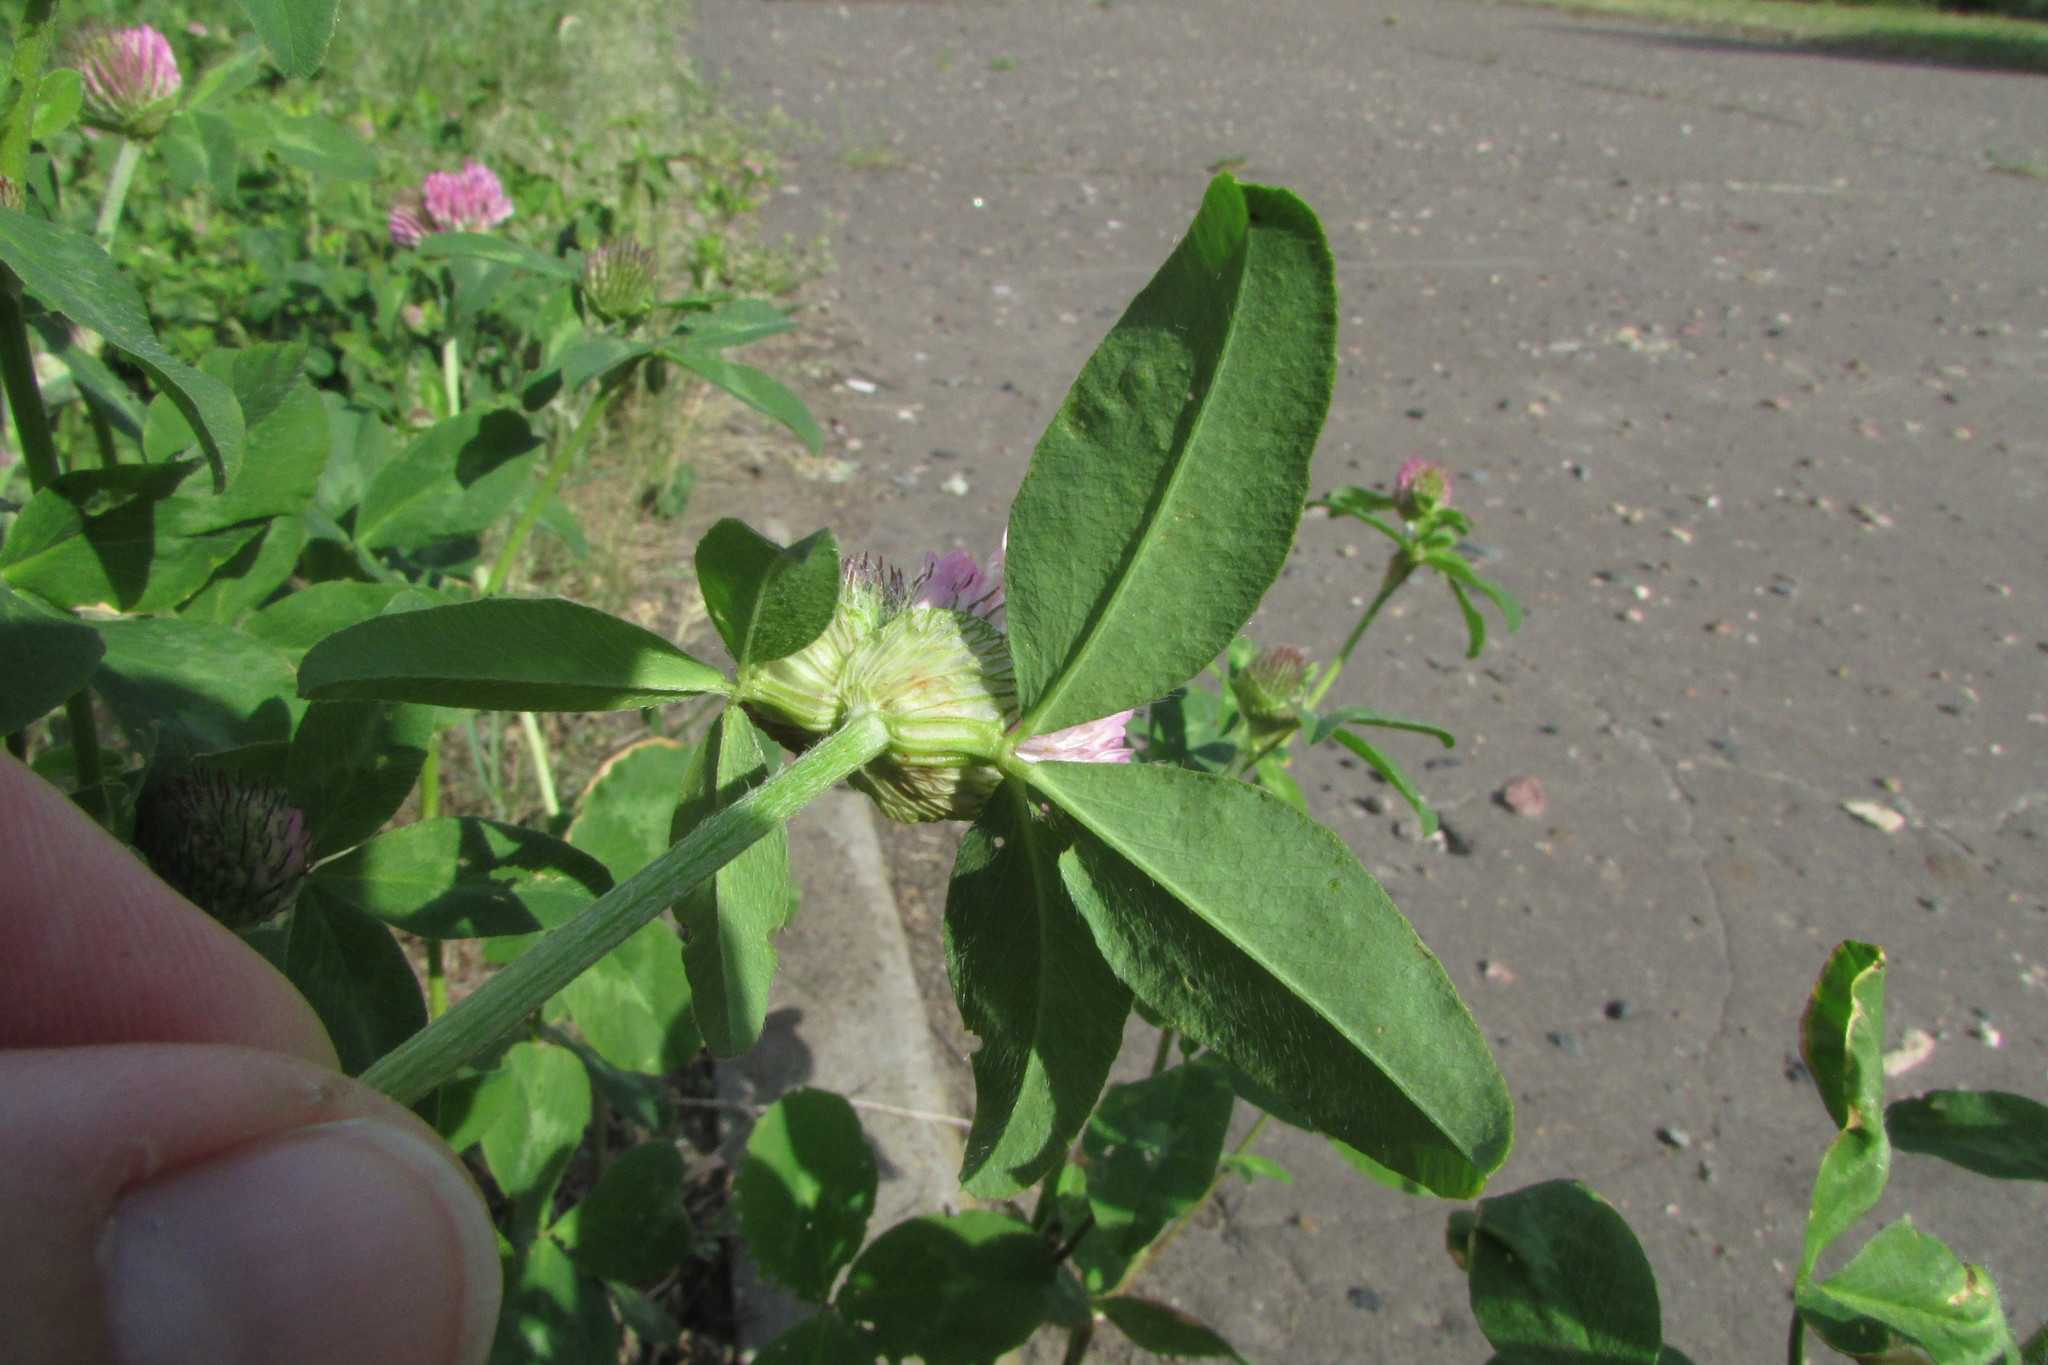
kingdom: Plantae
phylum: Tracheophyta
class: Magnoliopsida
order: Oxalidales
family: Oxalidaceae
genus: Oxalis
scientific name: Oxalis stricta
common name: Upright yellow-sorrel
